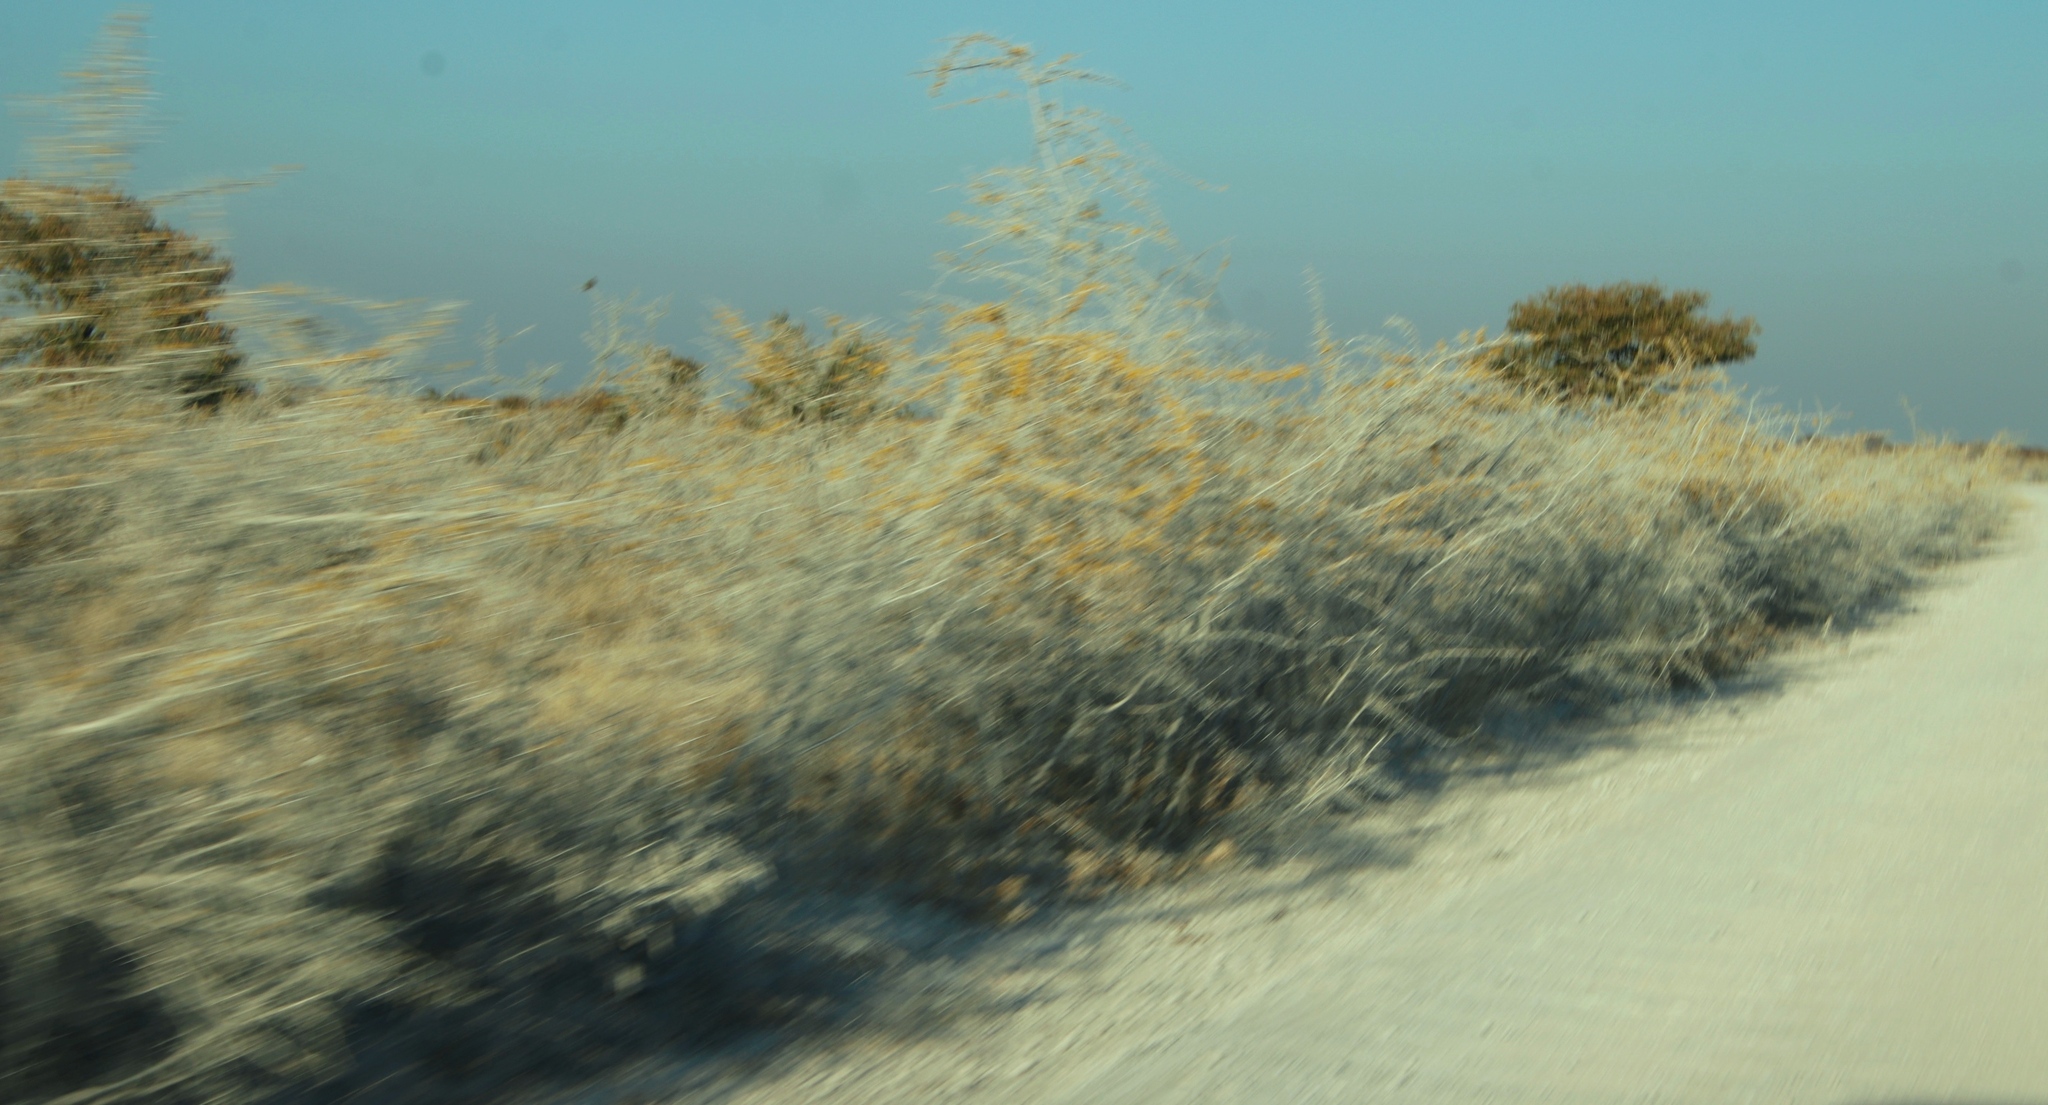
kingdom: Plantae
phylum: Tracheophyta
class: Magnoliopsida
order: Fabales
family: Fabaceae
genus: Vachellia
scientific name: Vachellia nebrownii
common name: Water acacia
